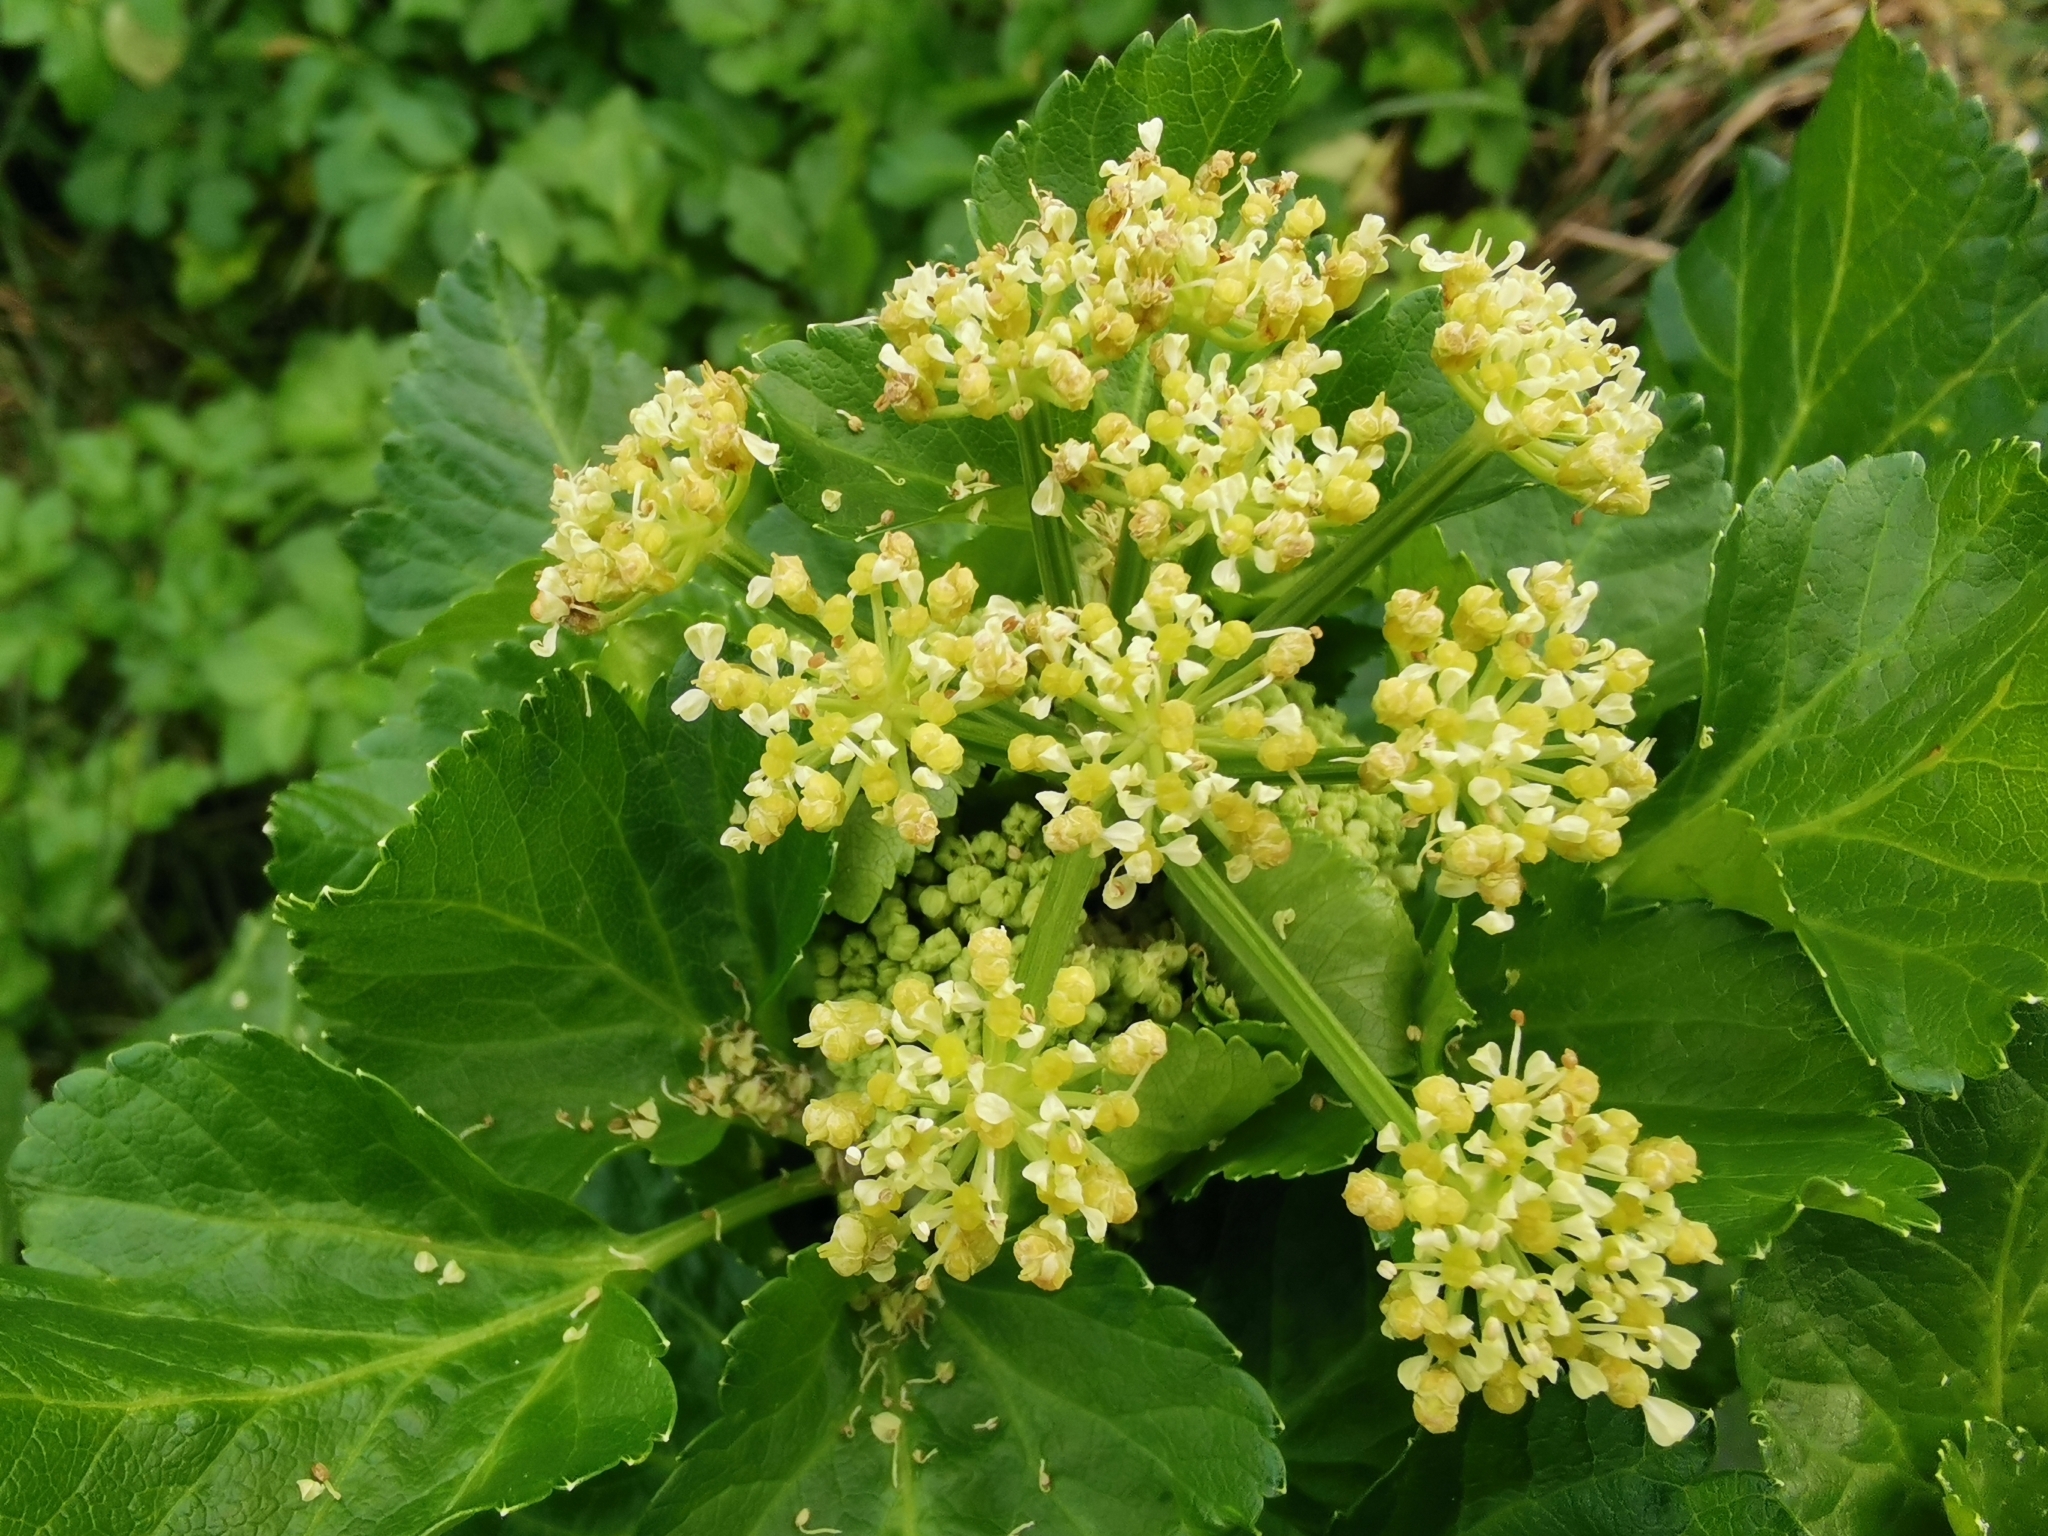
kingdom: Plantae
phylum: Tracheophyta
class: Magnoliopsida
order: Apiales
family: Apiaceae
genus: Smyrnium
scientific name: Smyrnium olusatrum
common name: Alexanders
